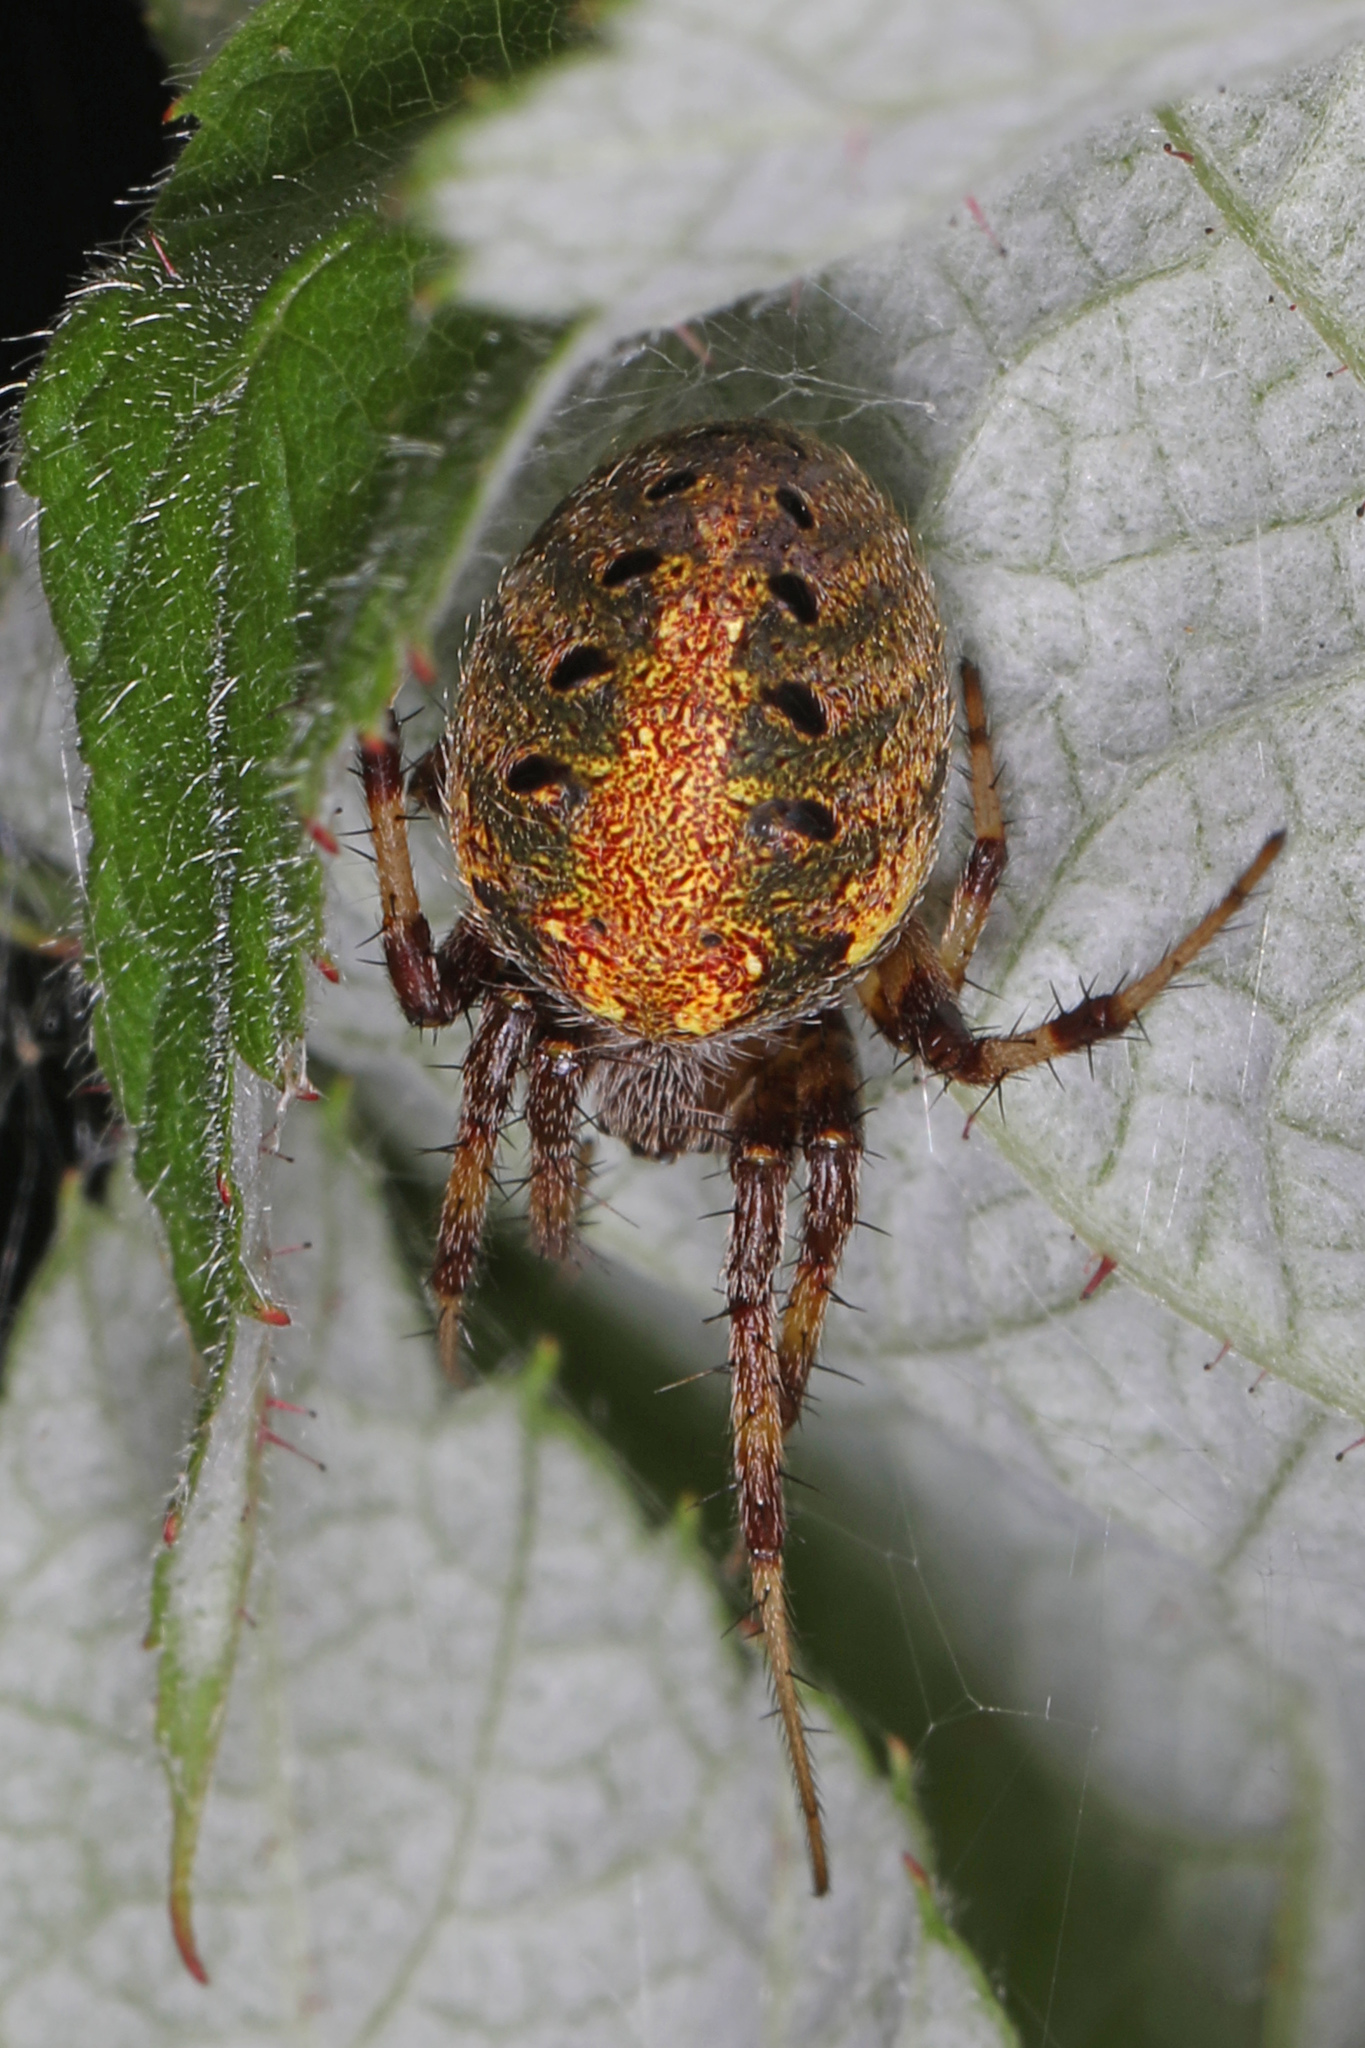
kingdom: Animalia
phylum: Arthropoda
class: Arachnida
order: Araneae
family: Araneidae
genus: Neoscona
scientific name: Neoscona arabesca
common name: Orb weavers
